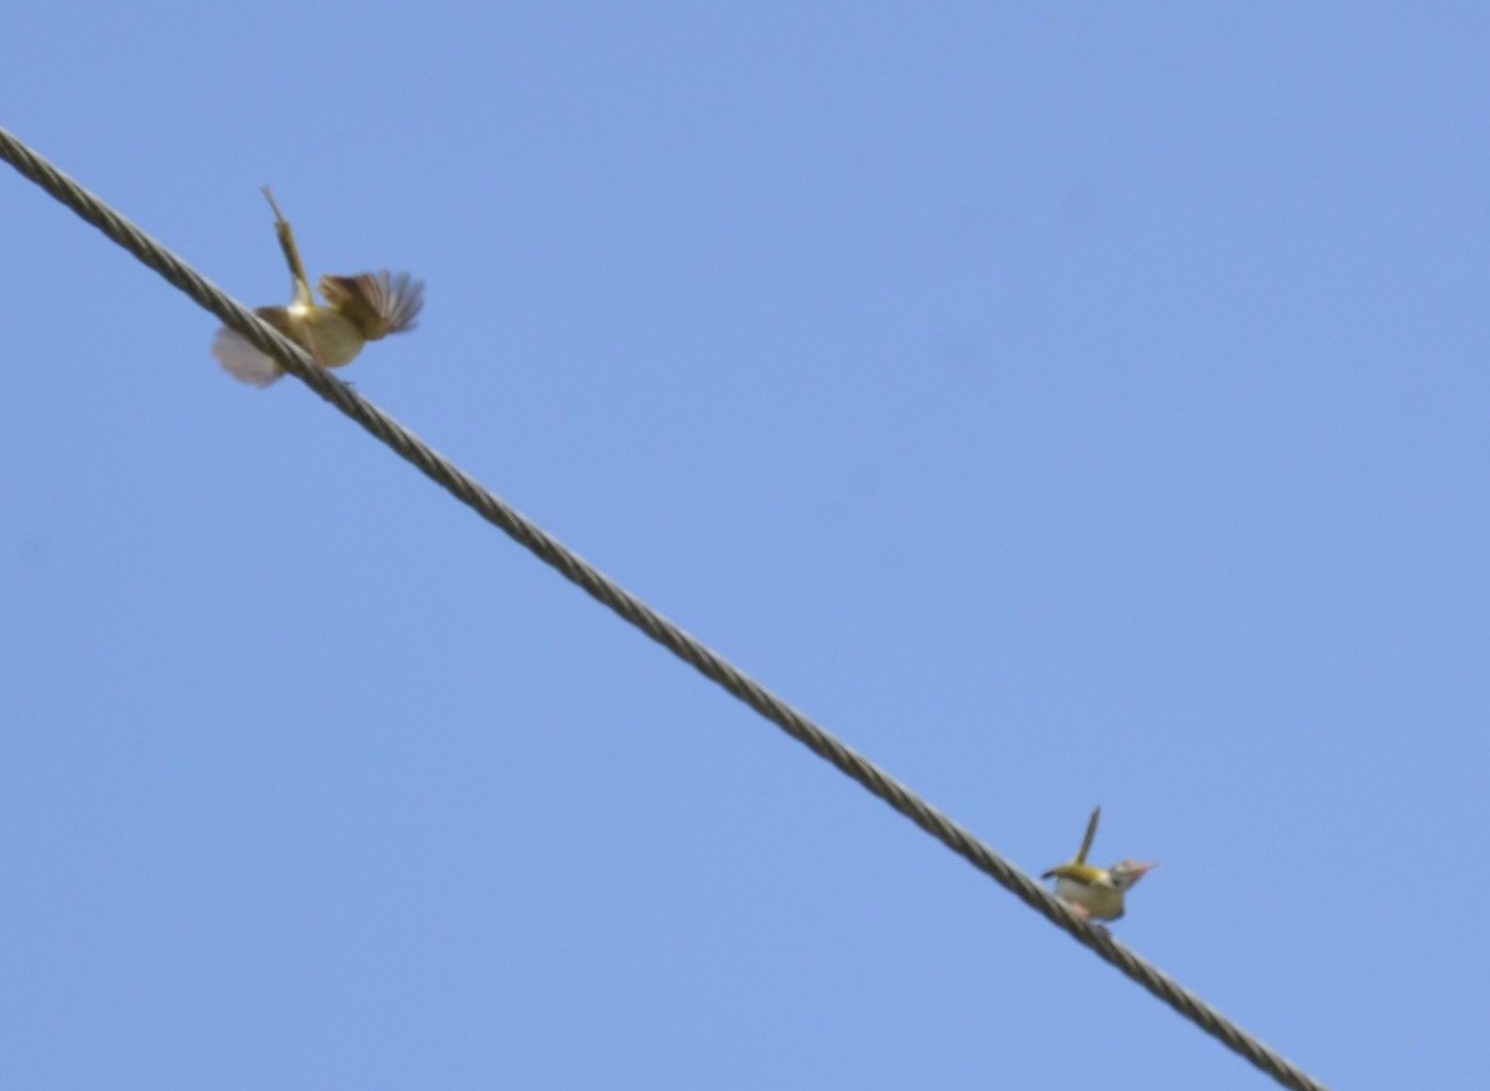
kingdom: Animalia
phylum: Chordata
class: Aves
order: Passeriformes
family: Cisticolidae
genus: Orthotomus
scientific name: Orthotomus sutorius
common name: Common tailorbird
